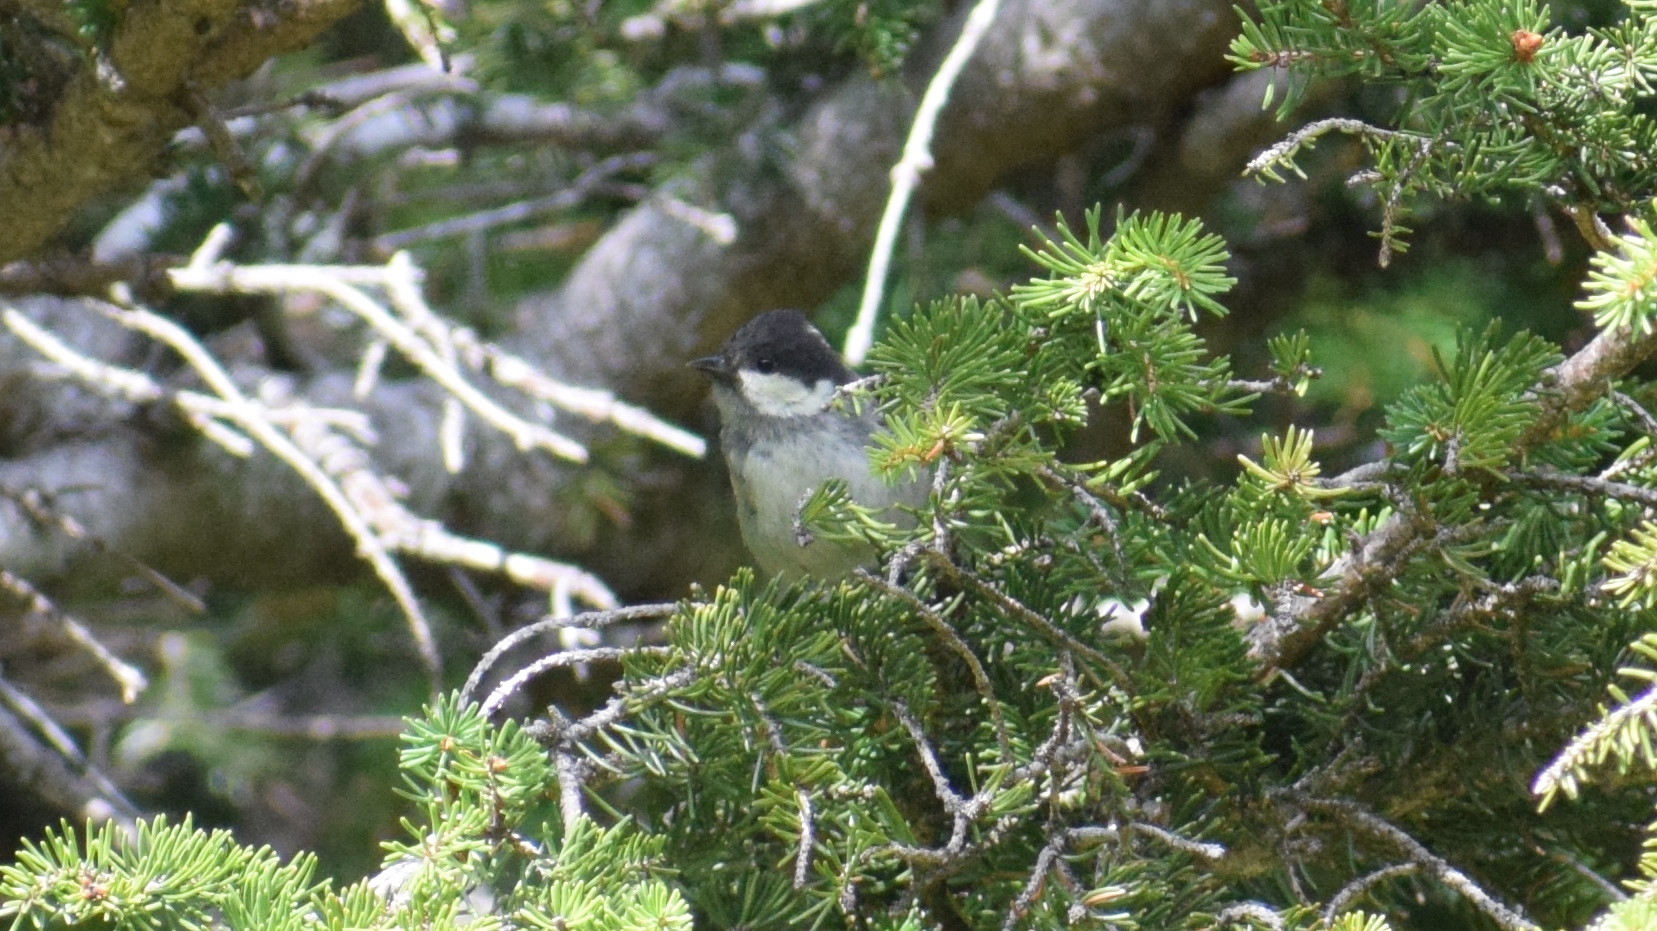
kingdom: Animalia
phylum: Chordata
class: Aves
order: Passeriformes
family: Paridae
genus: Periparus
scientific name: Periparus ater
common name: Coal tit
